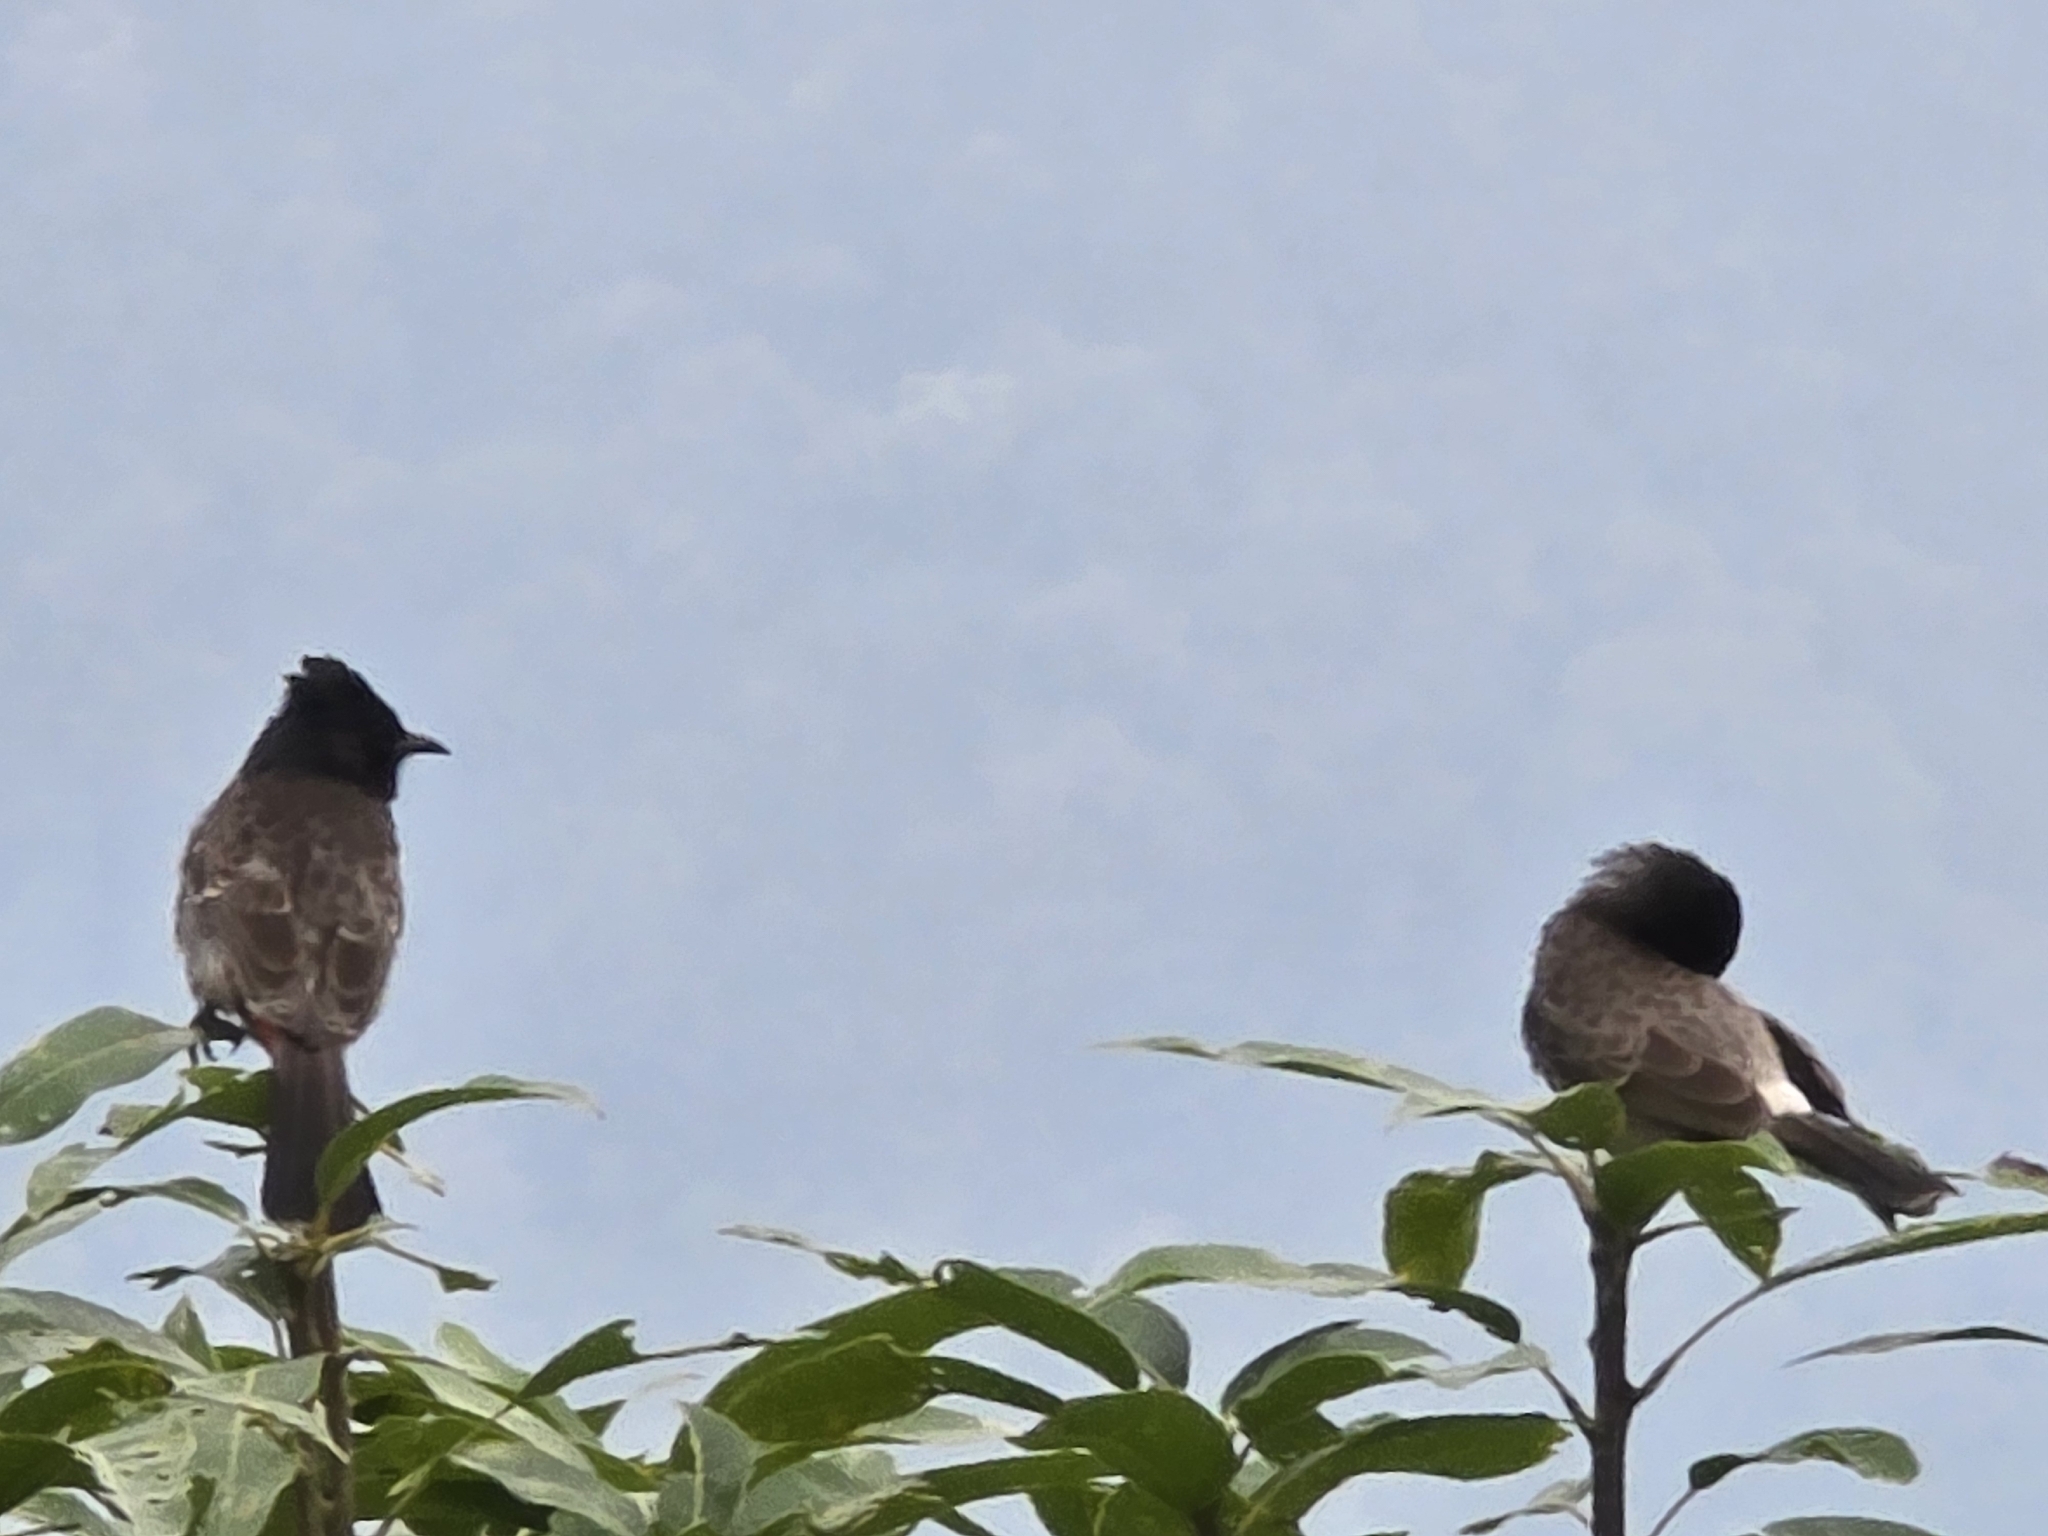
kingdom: Animalia
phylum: Chordata
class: Aves
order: Passeriformes
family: Pycnonotidae
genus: Pycnonotus
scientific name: Pycnonotus cafer
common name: Red-vented bulbul
